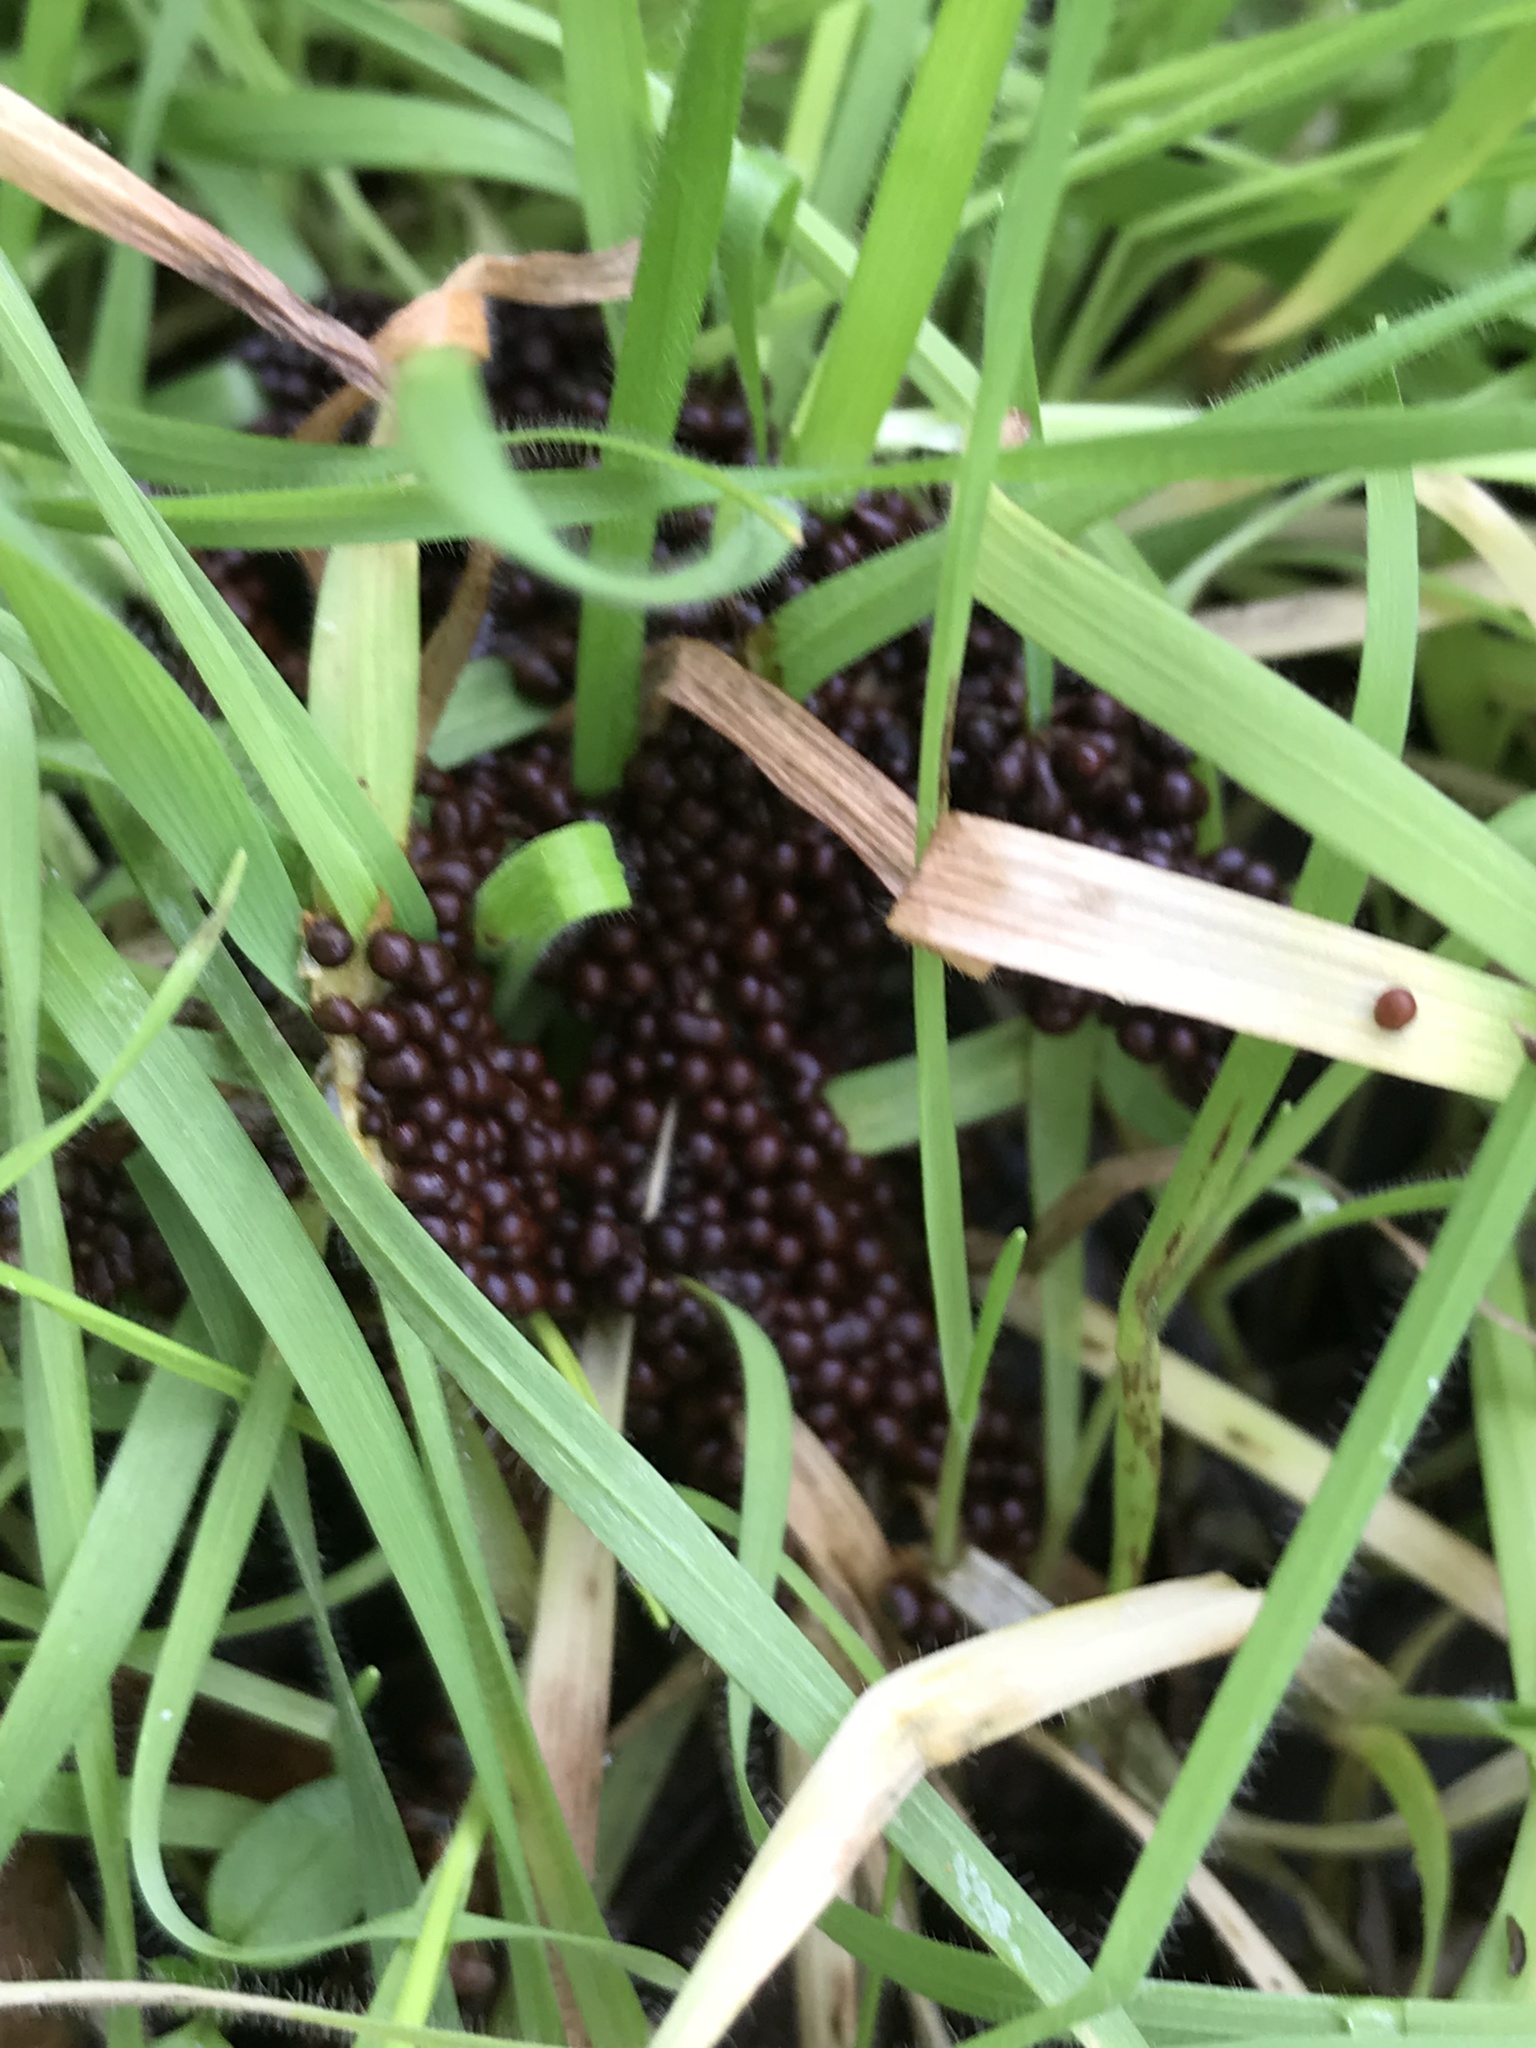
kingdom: Protozoa
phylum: Mycetozoa
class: Myxomycetes
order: Physarales
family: Physaraceae
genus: Leocarpus
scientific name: Leocarpus fragilis
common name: Insect-egg slime
